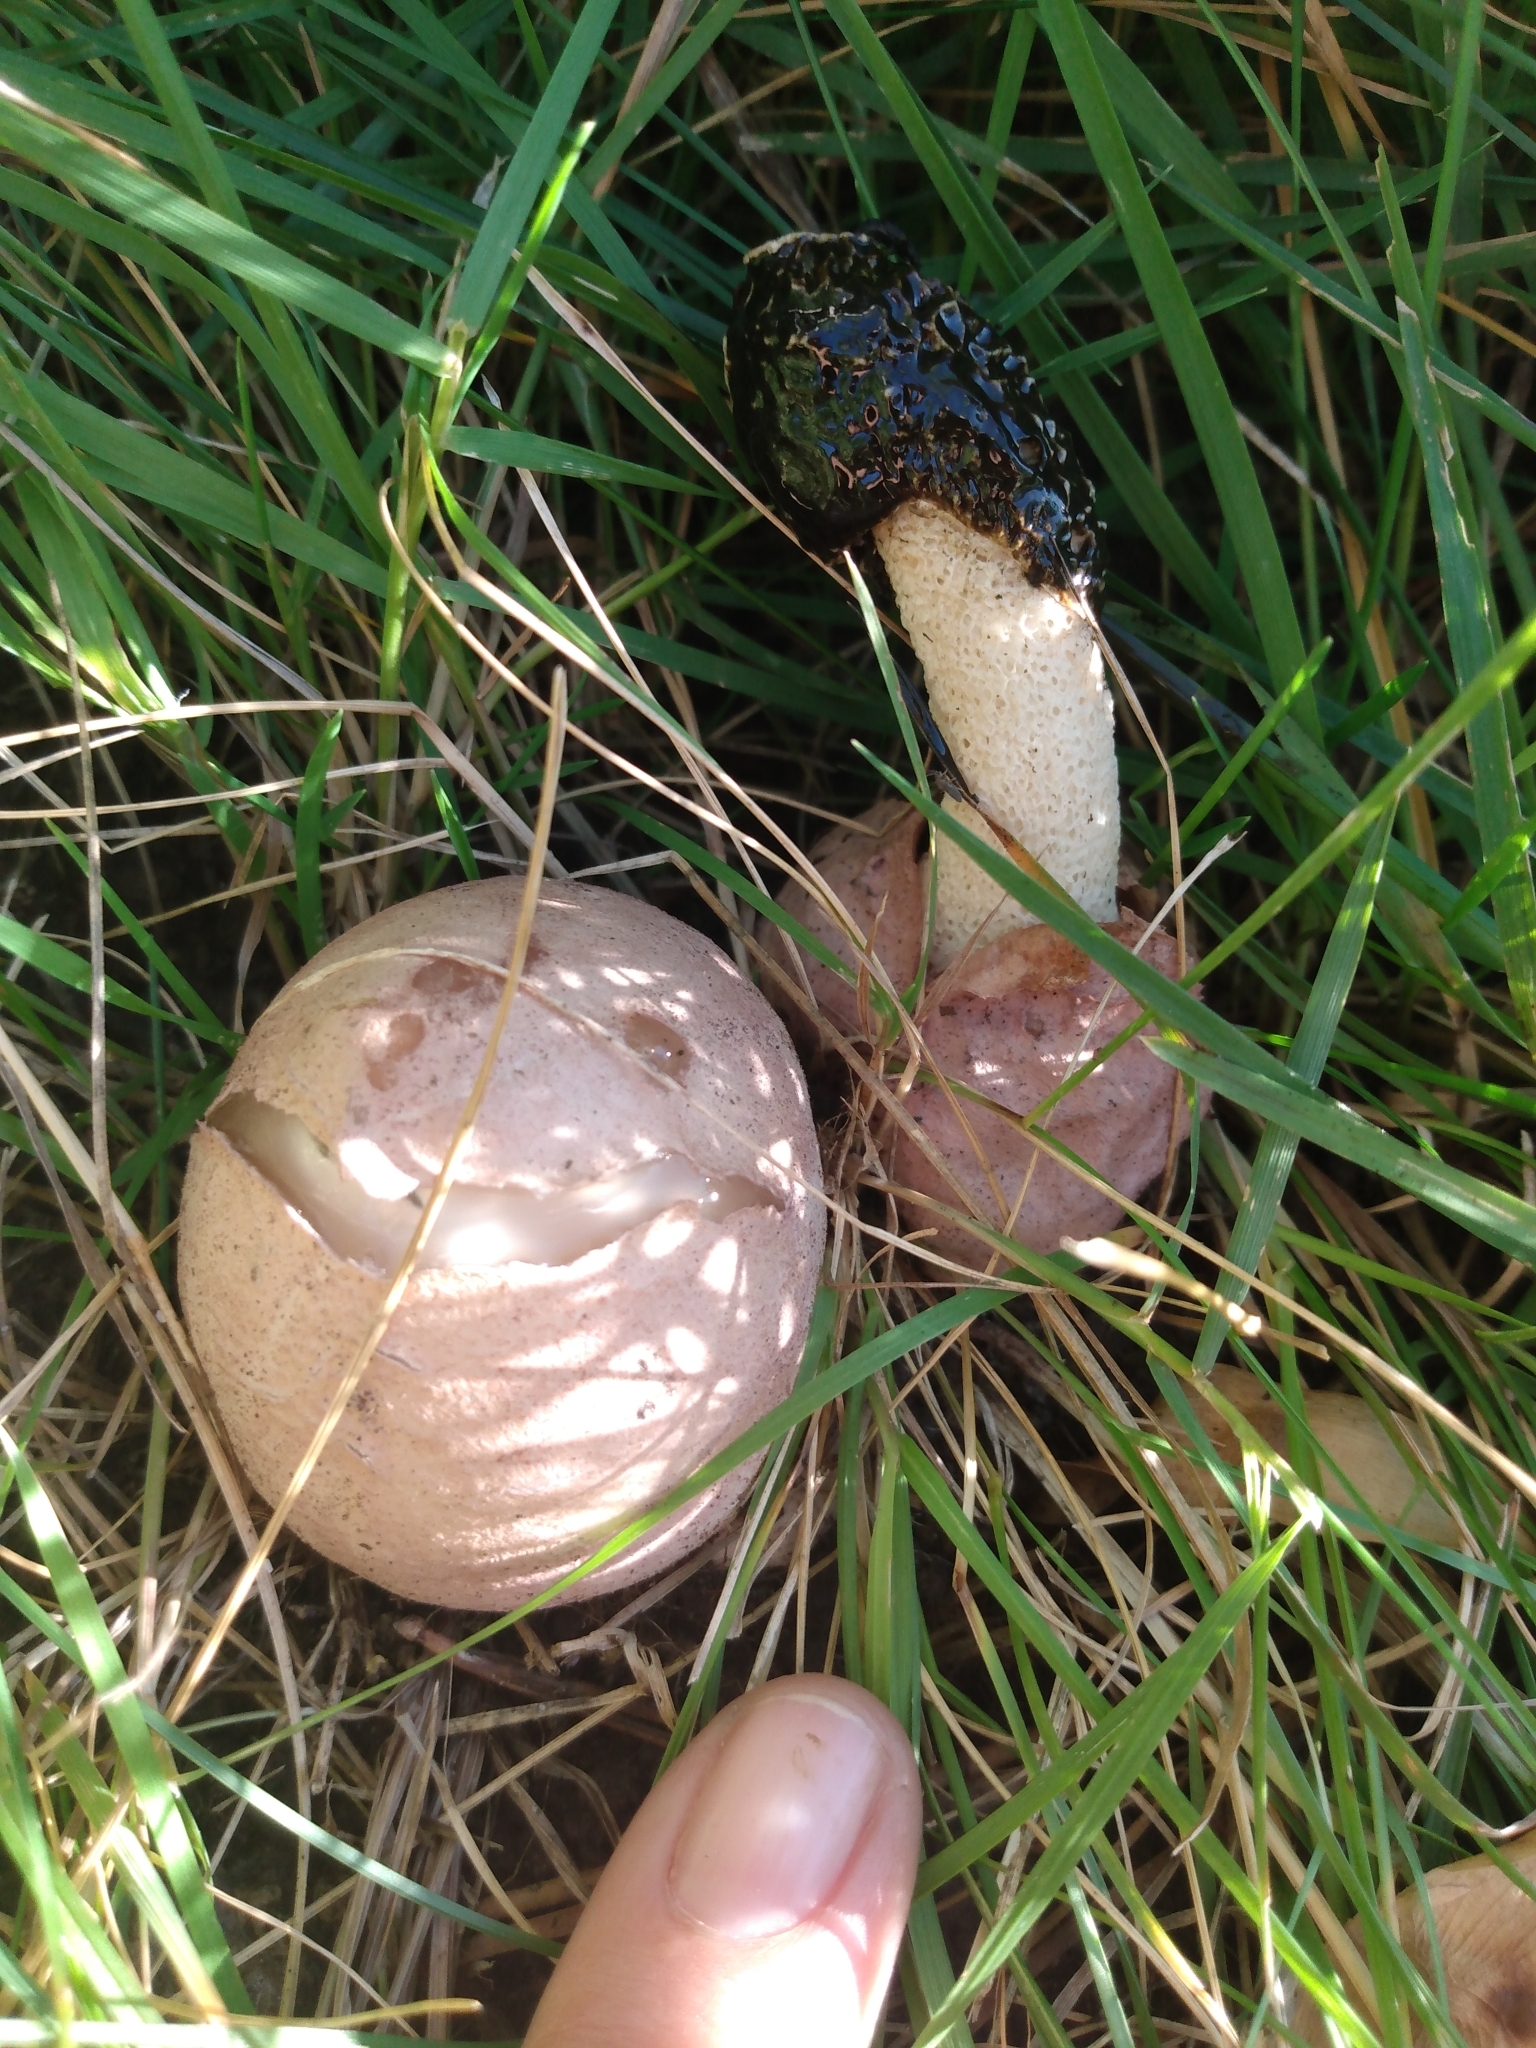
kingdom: Fungi
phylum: Basidiomycota
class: Agaricomycetes
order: Phallales
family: Phallaceae
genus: Phallus
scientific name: Phallus hadriani
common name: Sand stinkhorn
